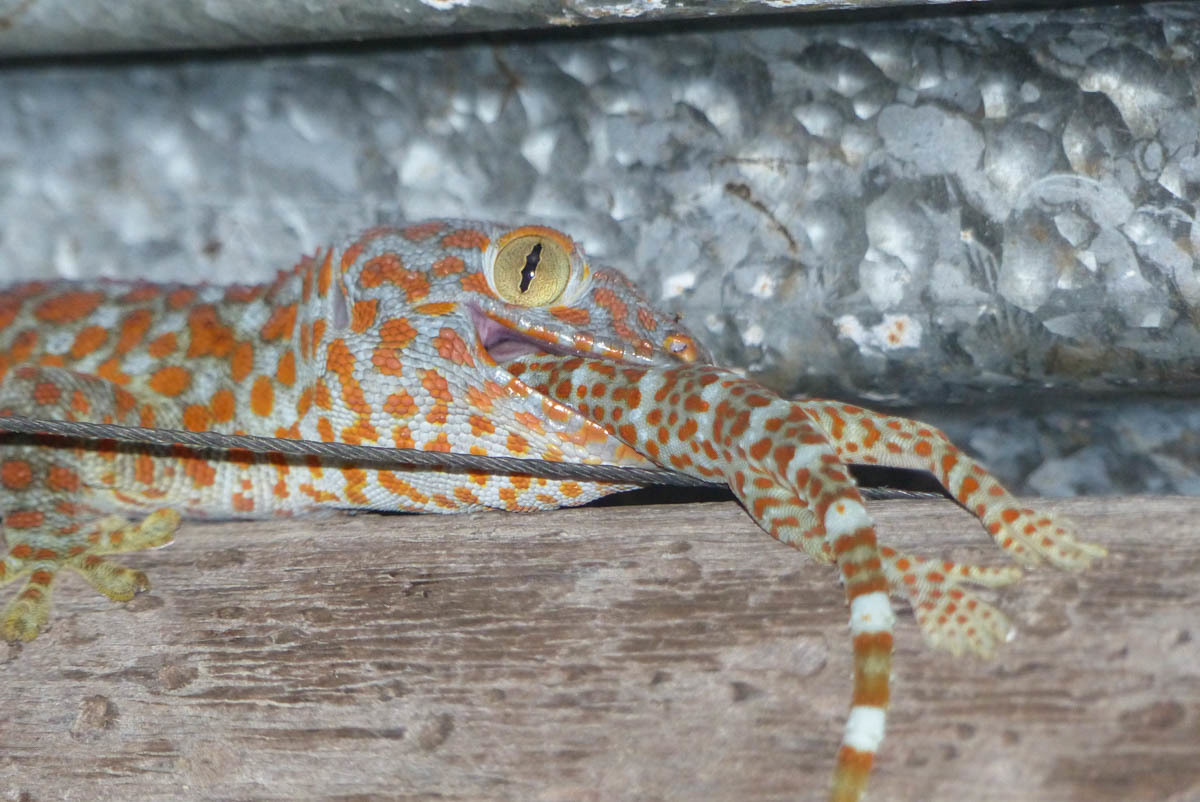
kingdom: Animalia
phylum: Chordata
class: Squamata
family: Gekkonidae
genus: Gekko
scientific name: Gekko gecko
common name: Tokay gecko
